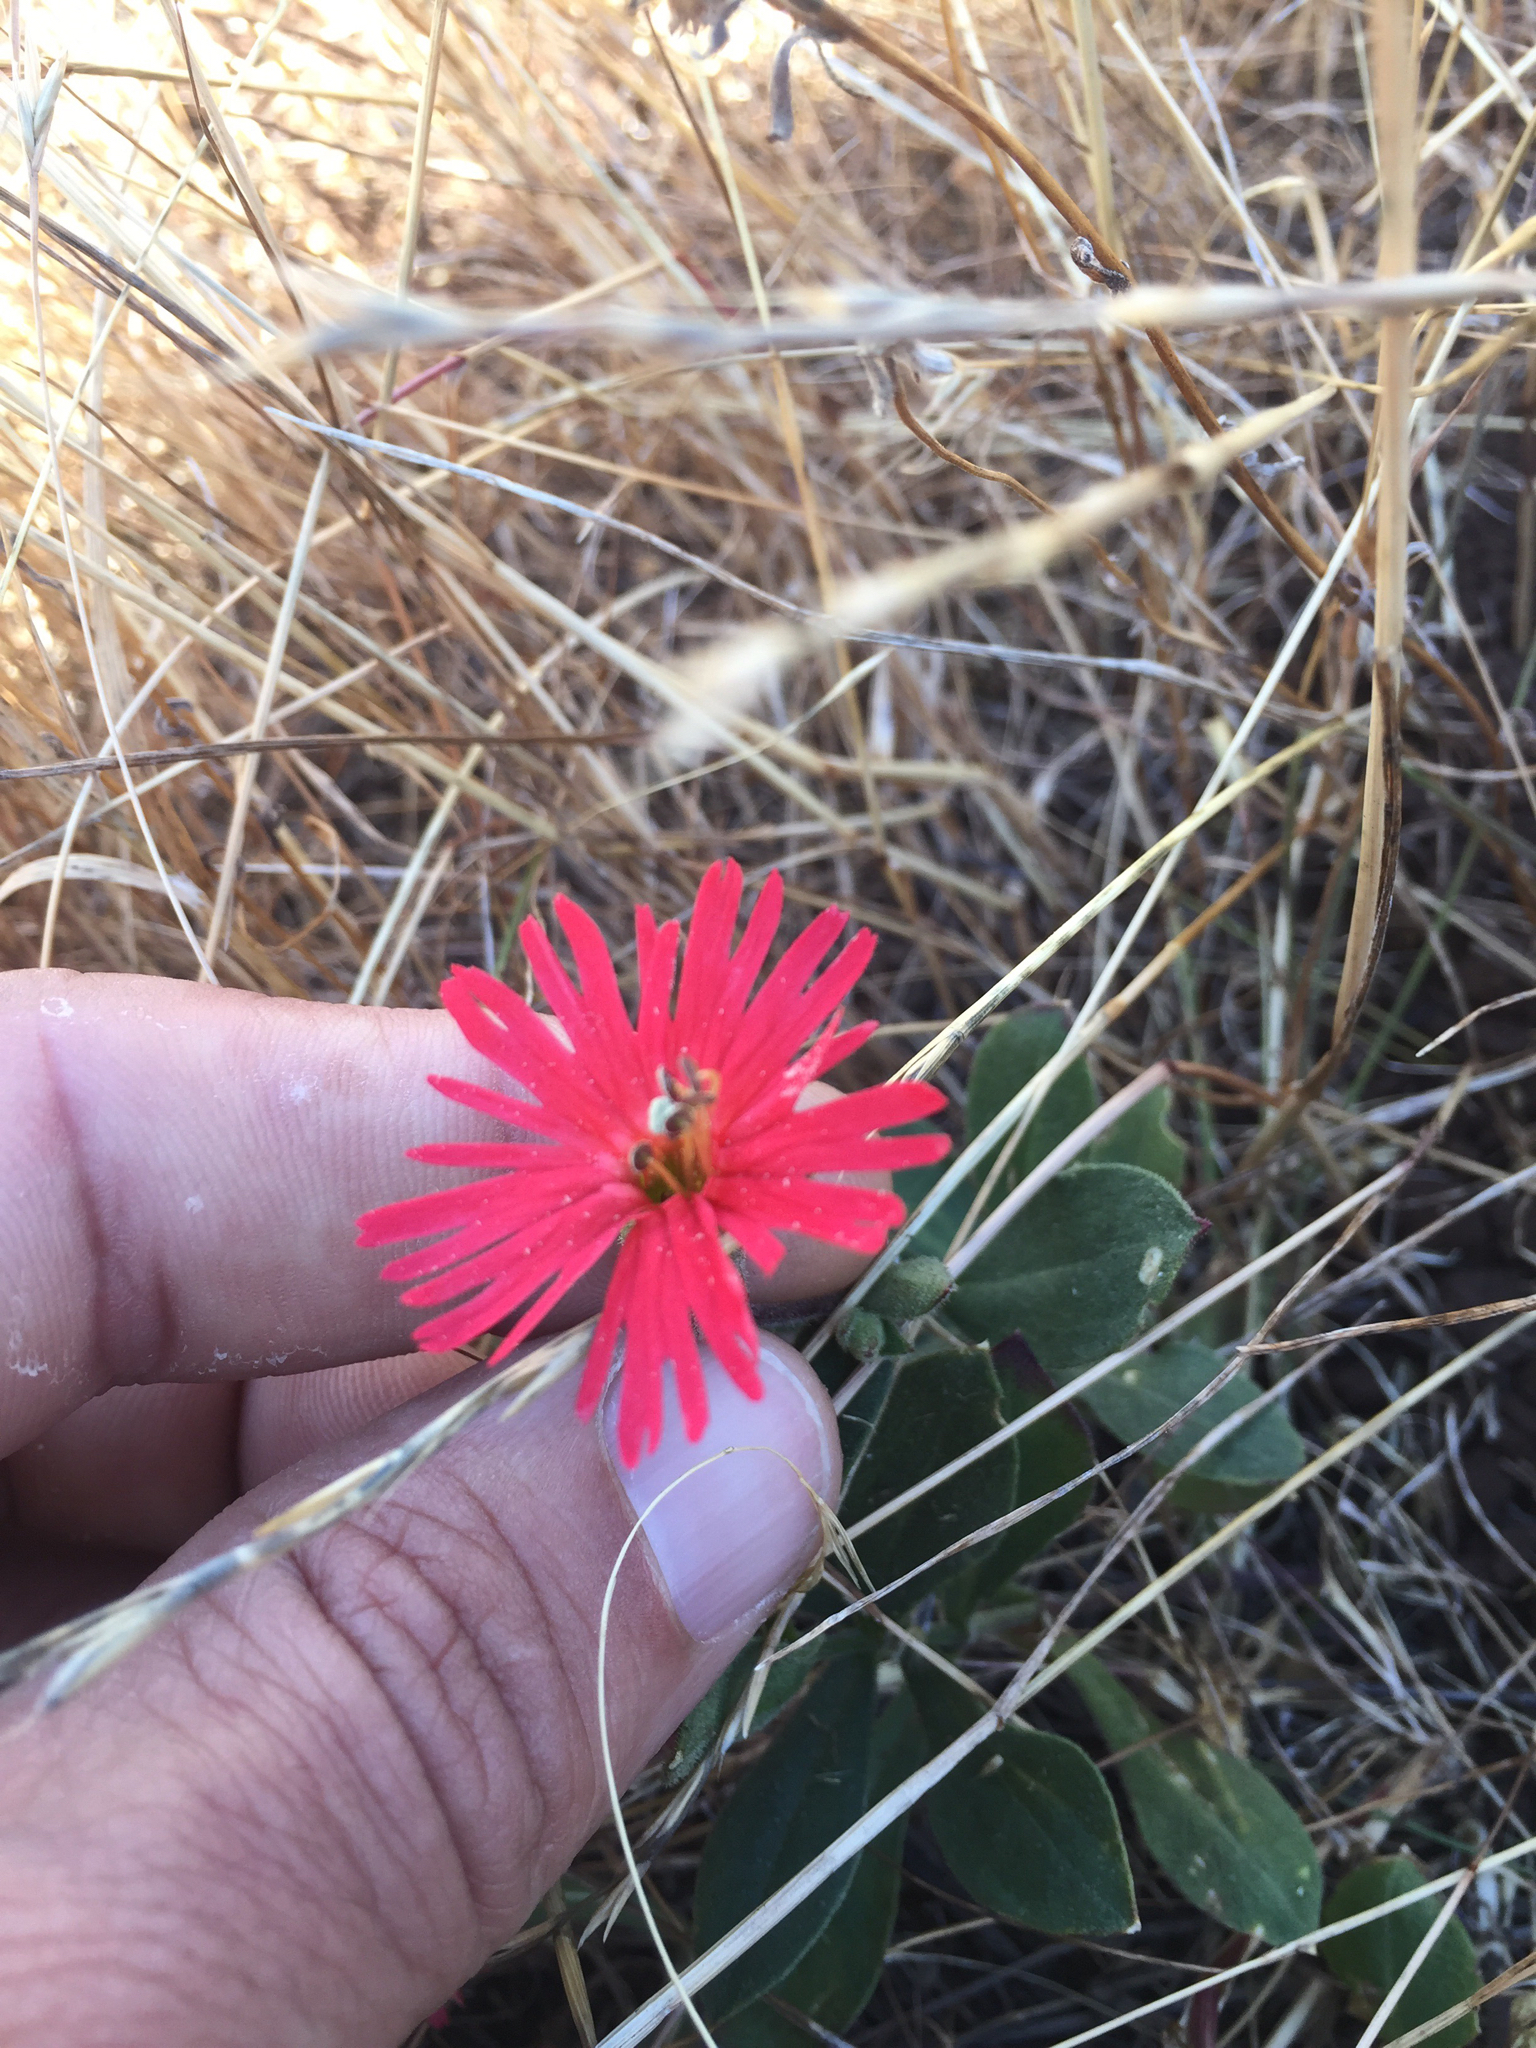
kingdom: Plantae
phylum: Tracheophyta
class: Magnoliopsida
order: Caryophyllales
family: Caryophyllaceae
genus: Silene
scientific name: Silene laciniata
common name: Indian-pink
